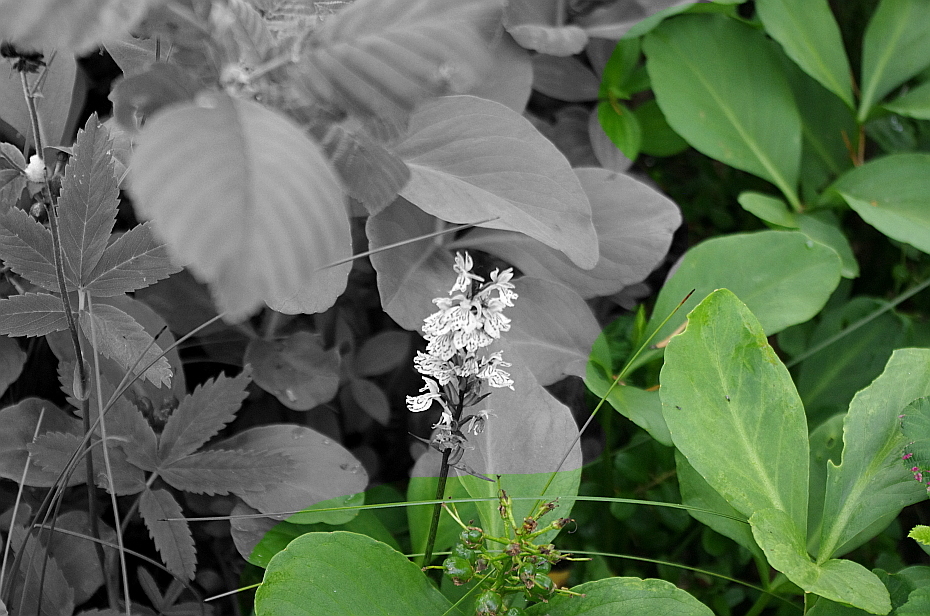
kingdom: Plantae
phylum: Tracheophyta
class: Magnoliopsida
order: Asterales
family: Menyanthaceae
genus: Menyanthes
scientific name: Menyanthes trifoliata
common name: Bogbean
